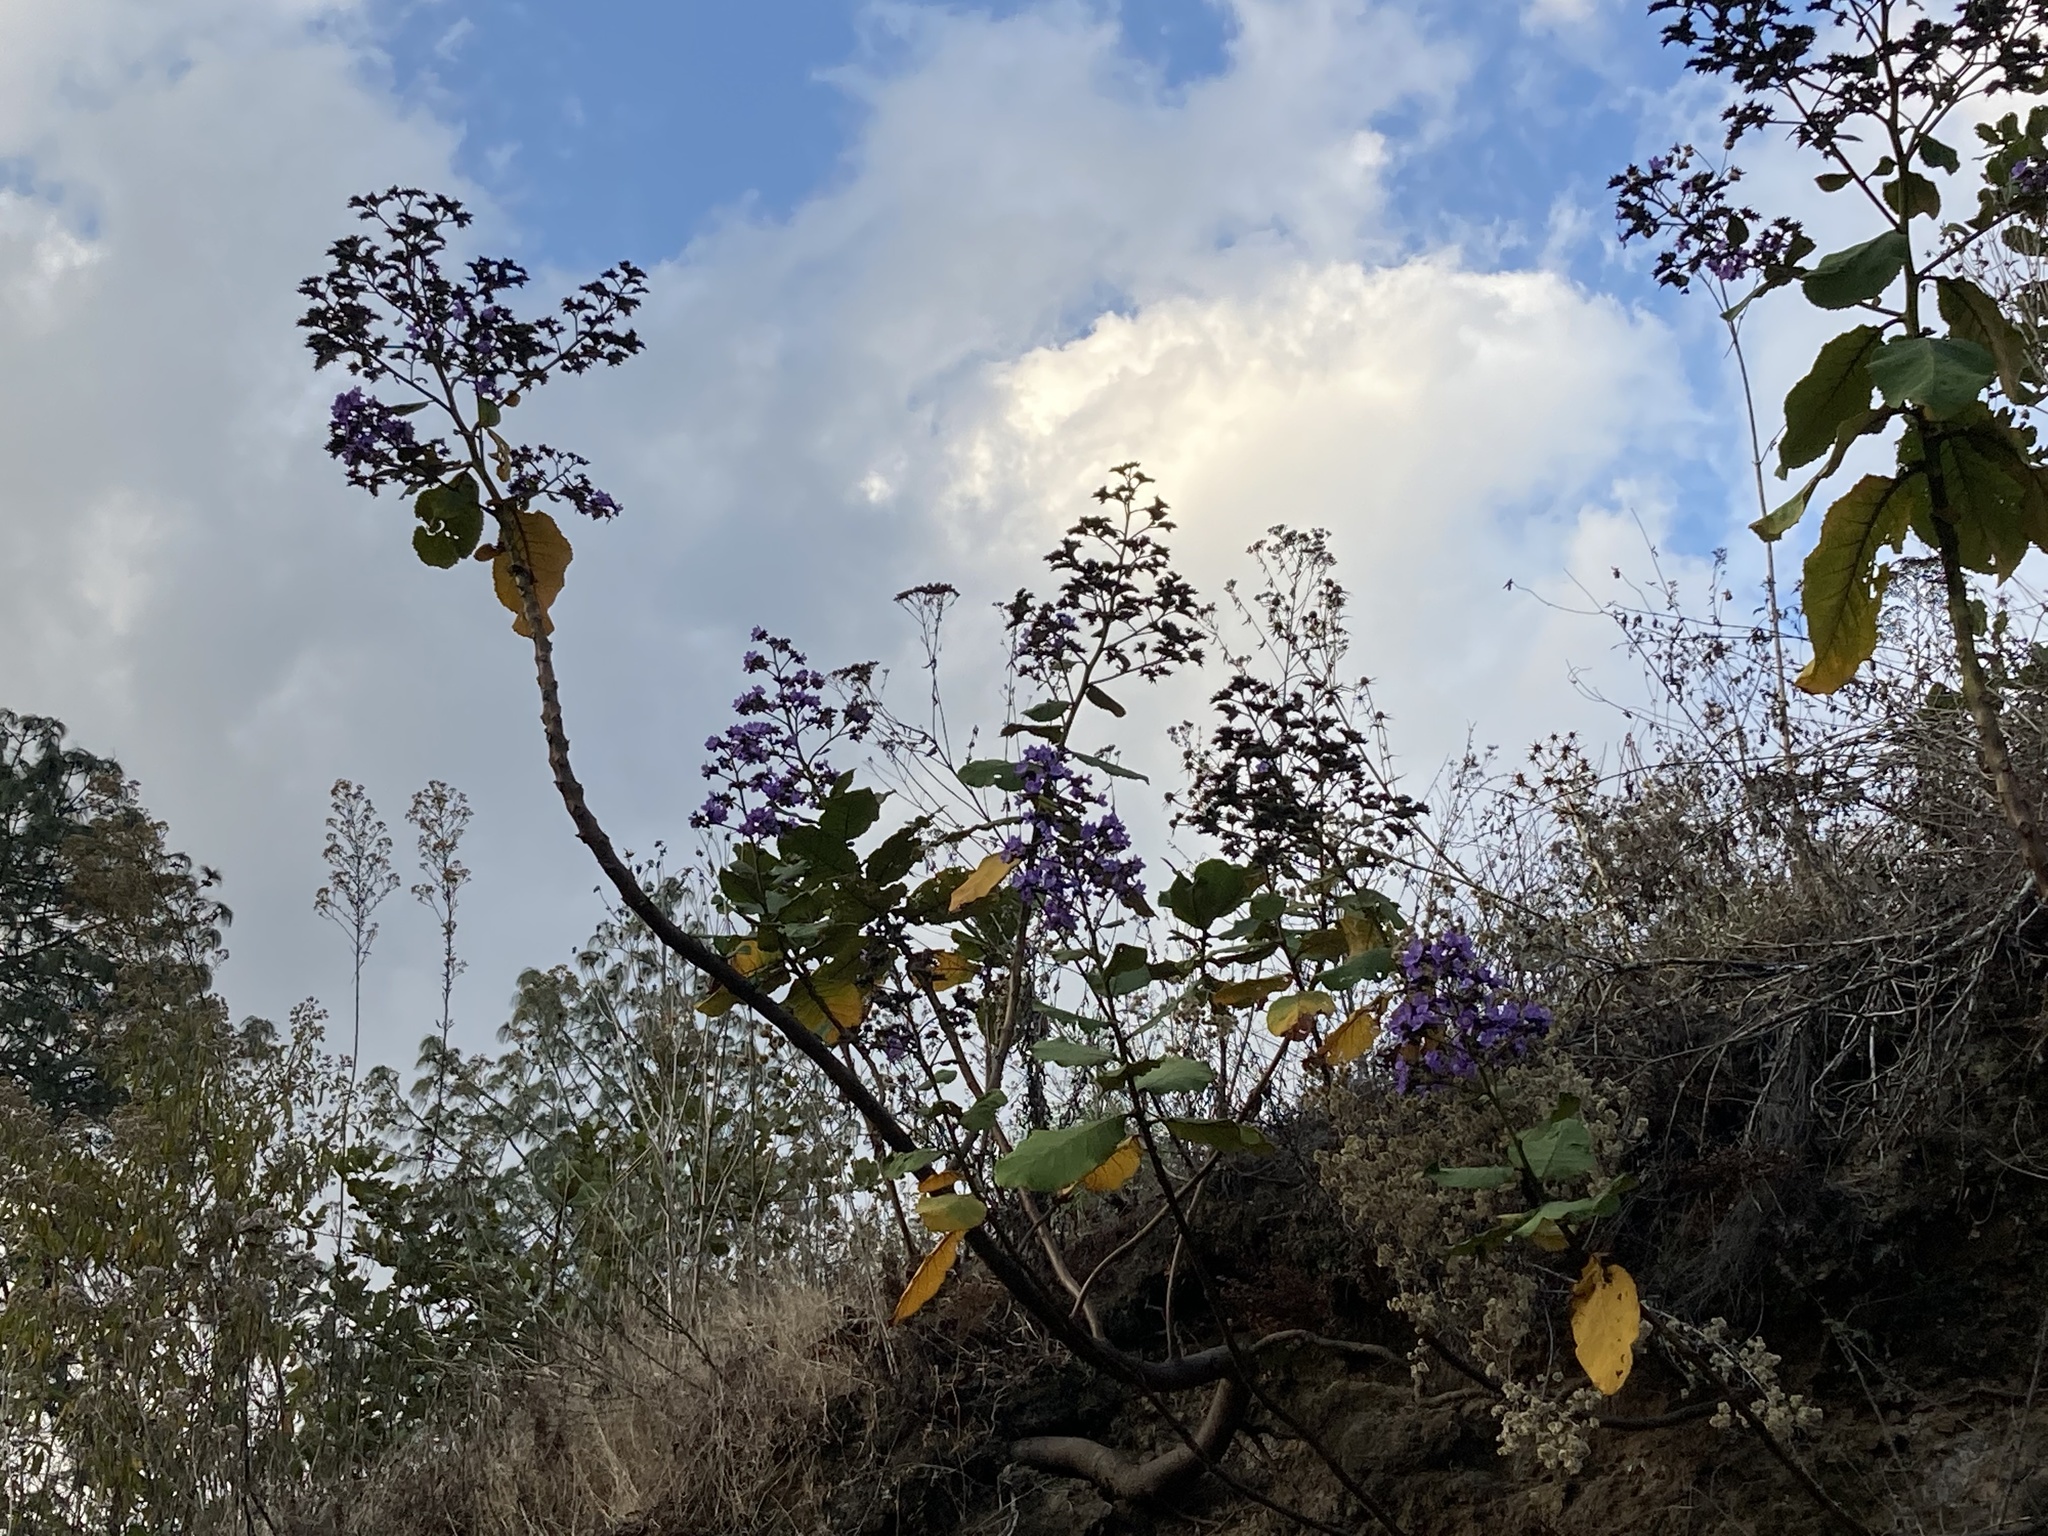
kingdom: Plantae
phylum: Tracheophyta
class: Magnoliopsida
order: Boraginales
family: Namaceae
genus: Wigandia
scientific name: Wigandia urens
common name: Caracus wigandia
